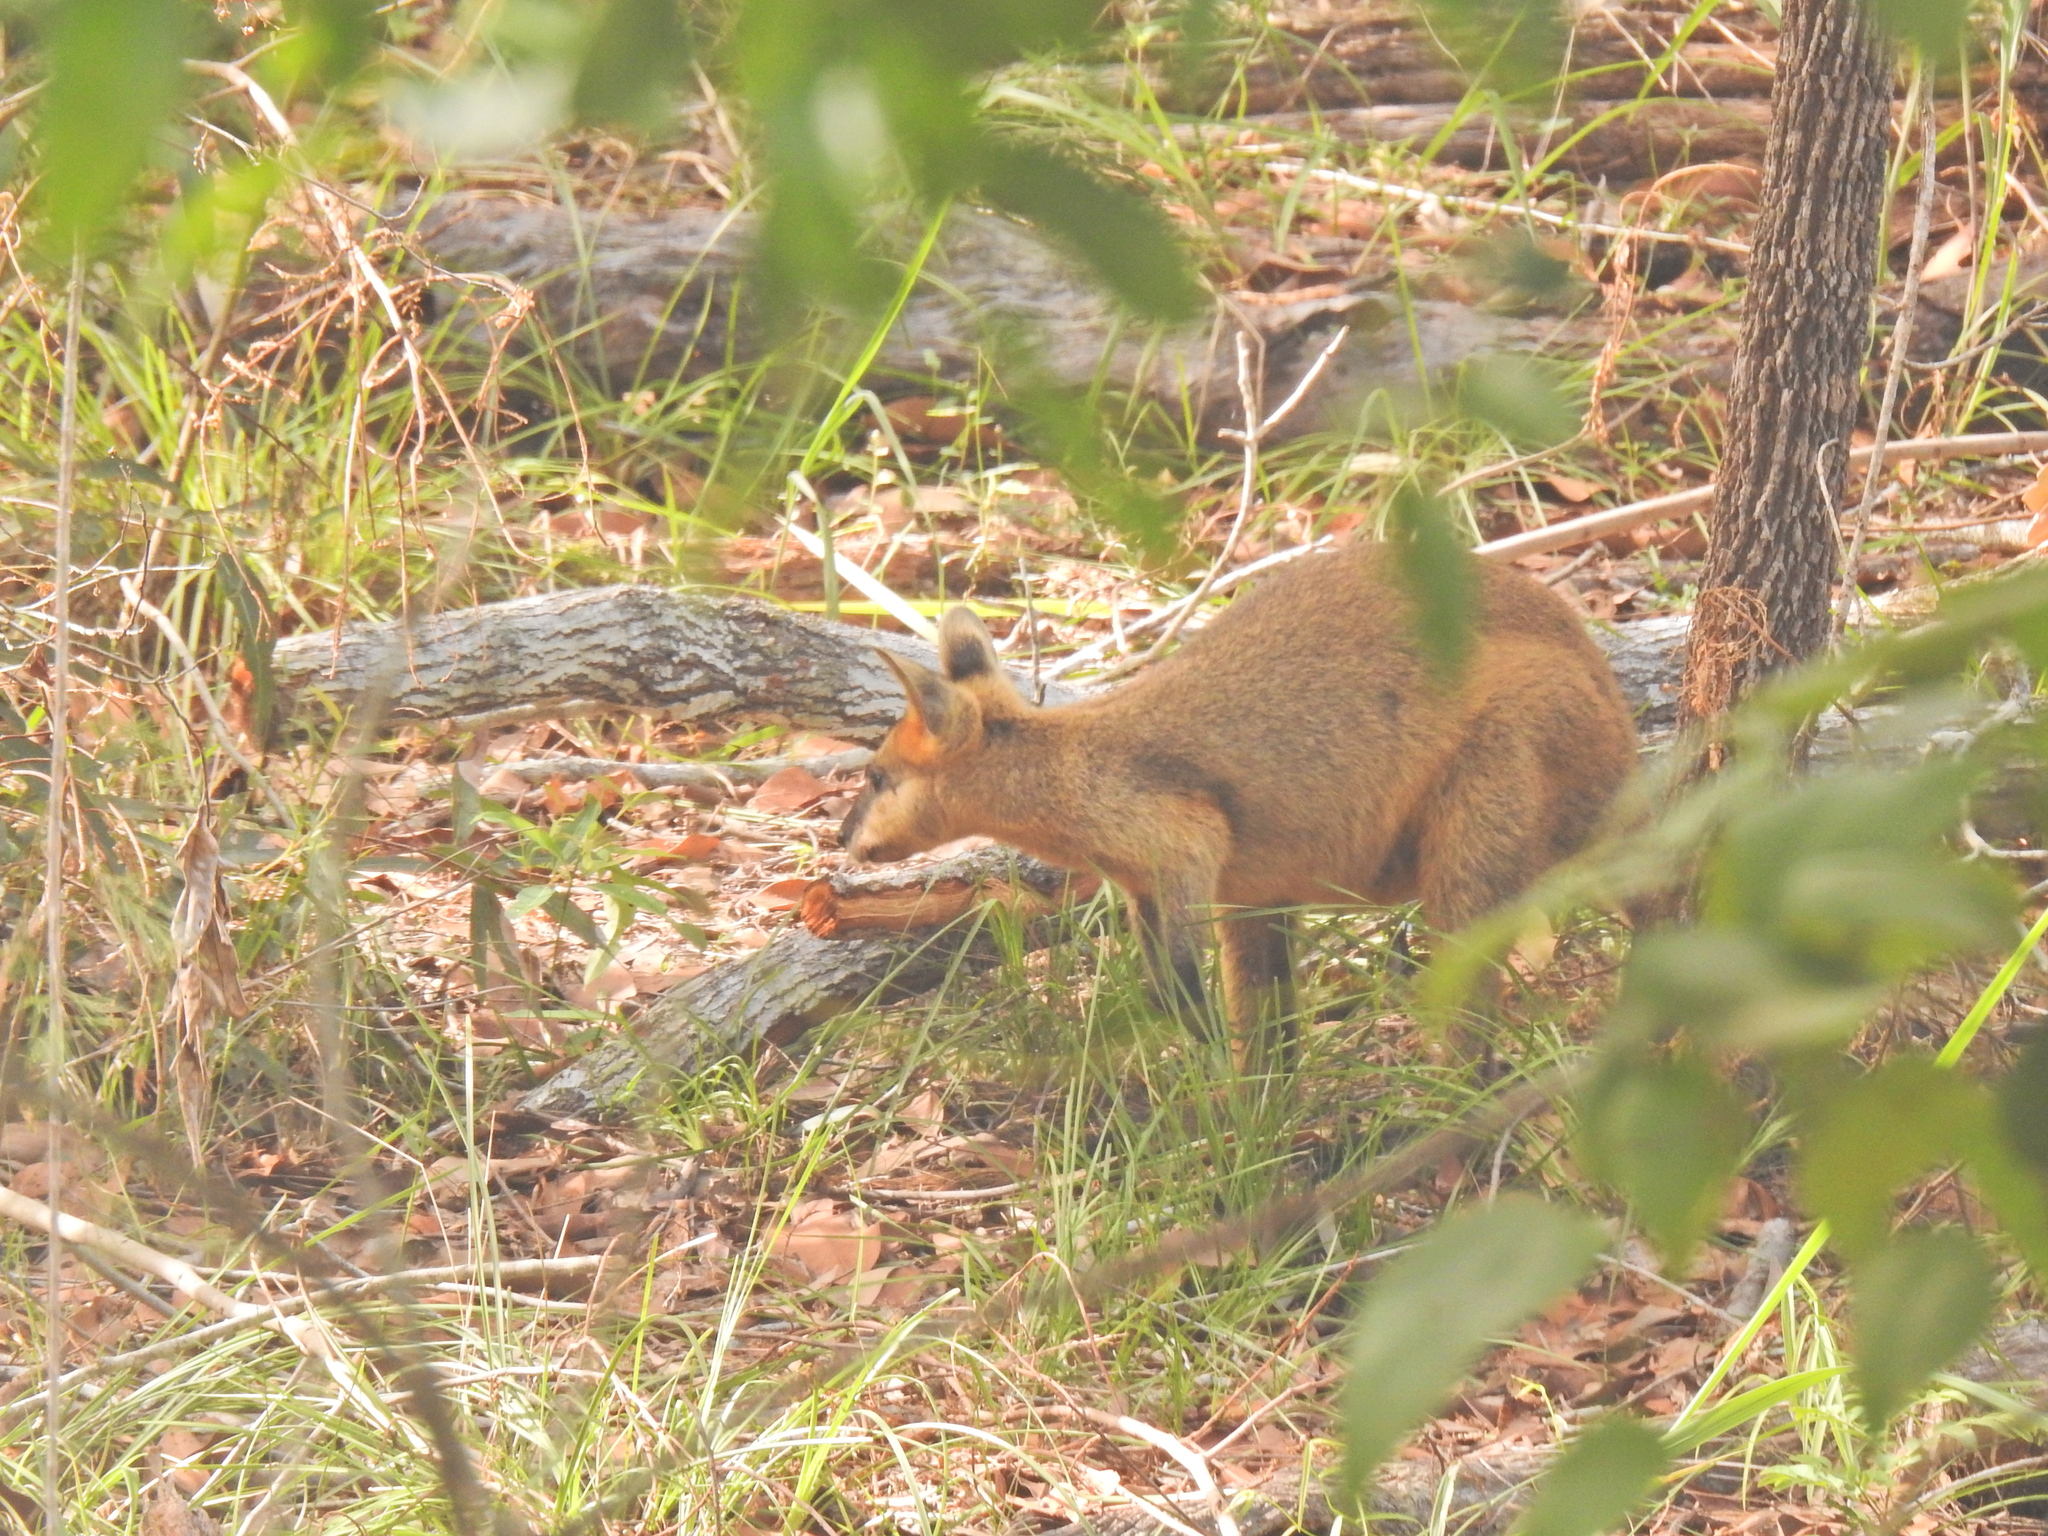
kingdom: Animalia
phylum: Chordata
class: Mammalia
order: Diprotodontia
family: Macropodidae
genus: Wallabia
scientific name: Wallabia bicolor
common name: Swamp wallaby
